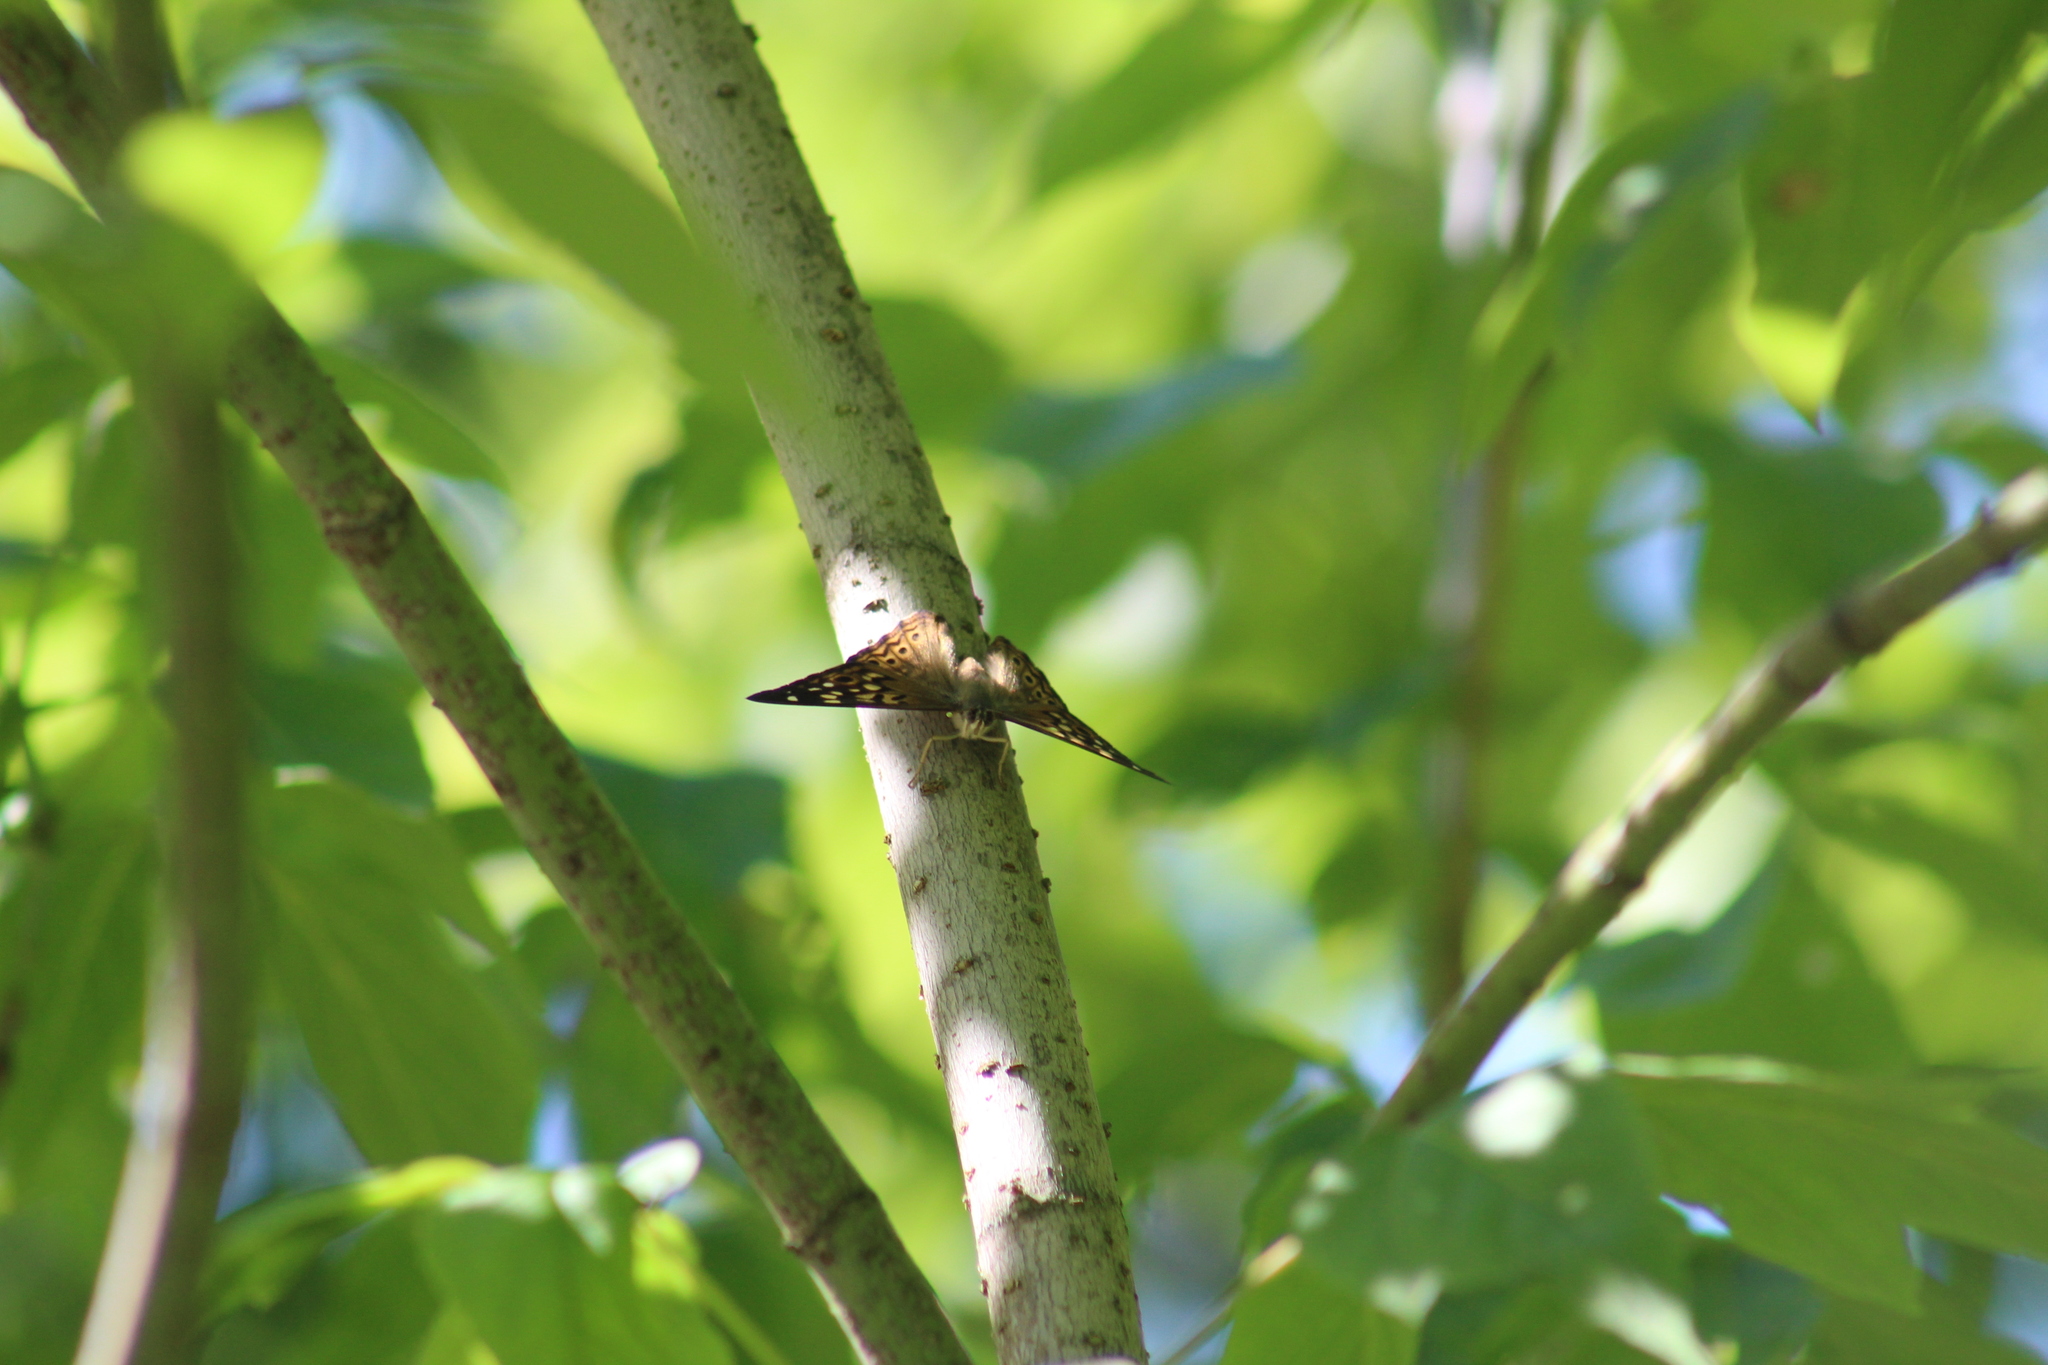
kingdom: Animalia
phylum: Arthropoda
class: Insecta
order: Lepidoptera
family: Nymphalidae
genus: Asterocampa
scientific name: Asterocampa celtis
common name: Hackberry emperor
